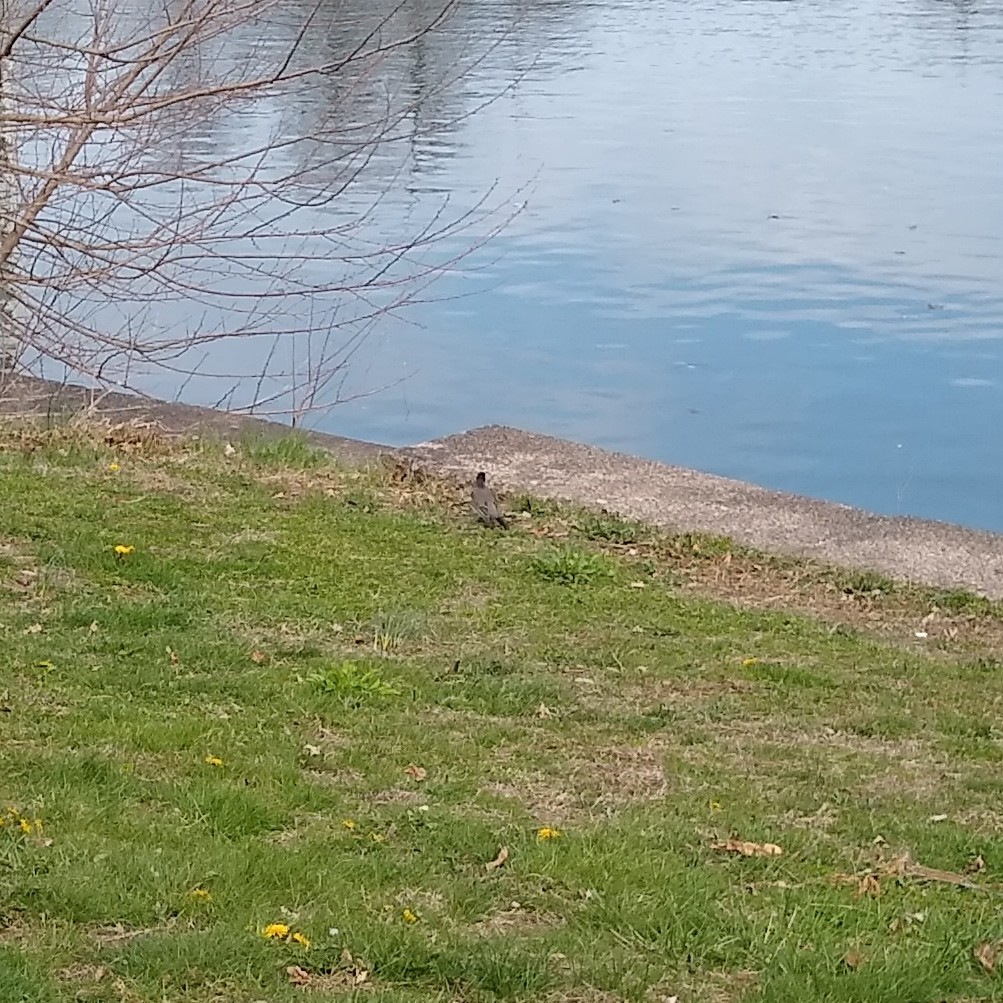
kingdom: Animalia
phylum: Chordata
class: Aves
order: Passeriformes
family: Turdidae
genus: Turdus
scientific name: Turdus migratorius
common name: American robin
